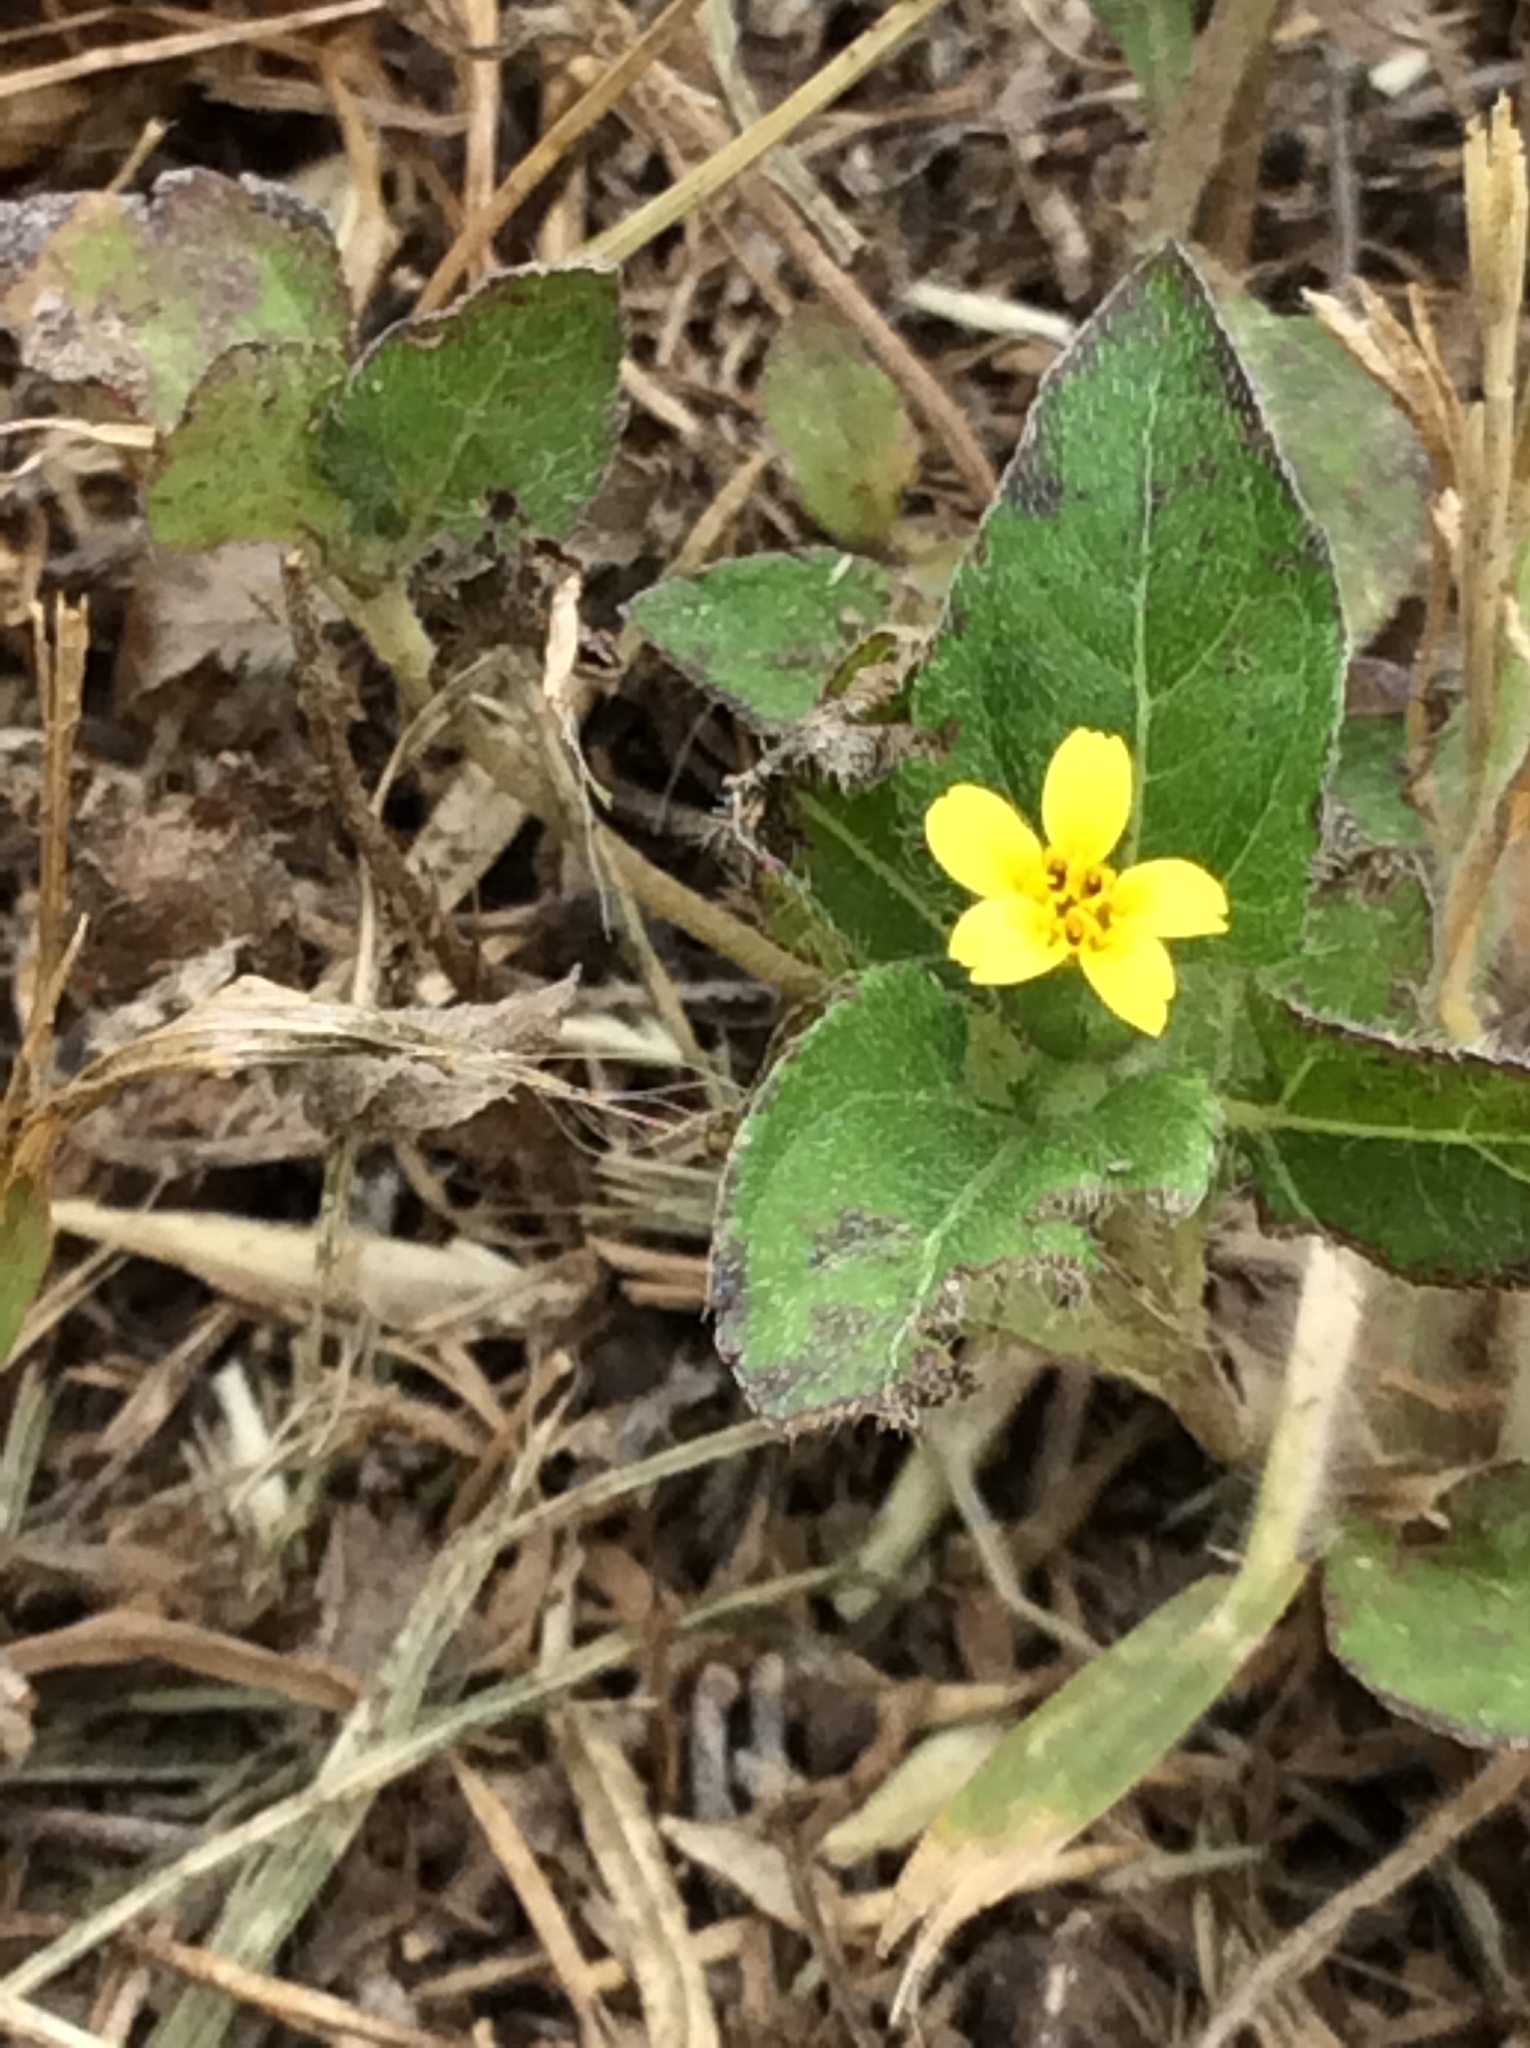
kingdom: Plantae
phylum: Tracheophyta
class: Magnoliopsida
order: Asterales
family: Asteraceae
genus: Calyptocarpus
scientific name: Calyptocarpus vialis
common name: Straggler daisy
